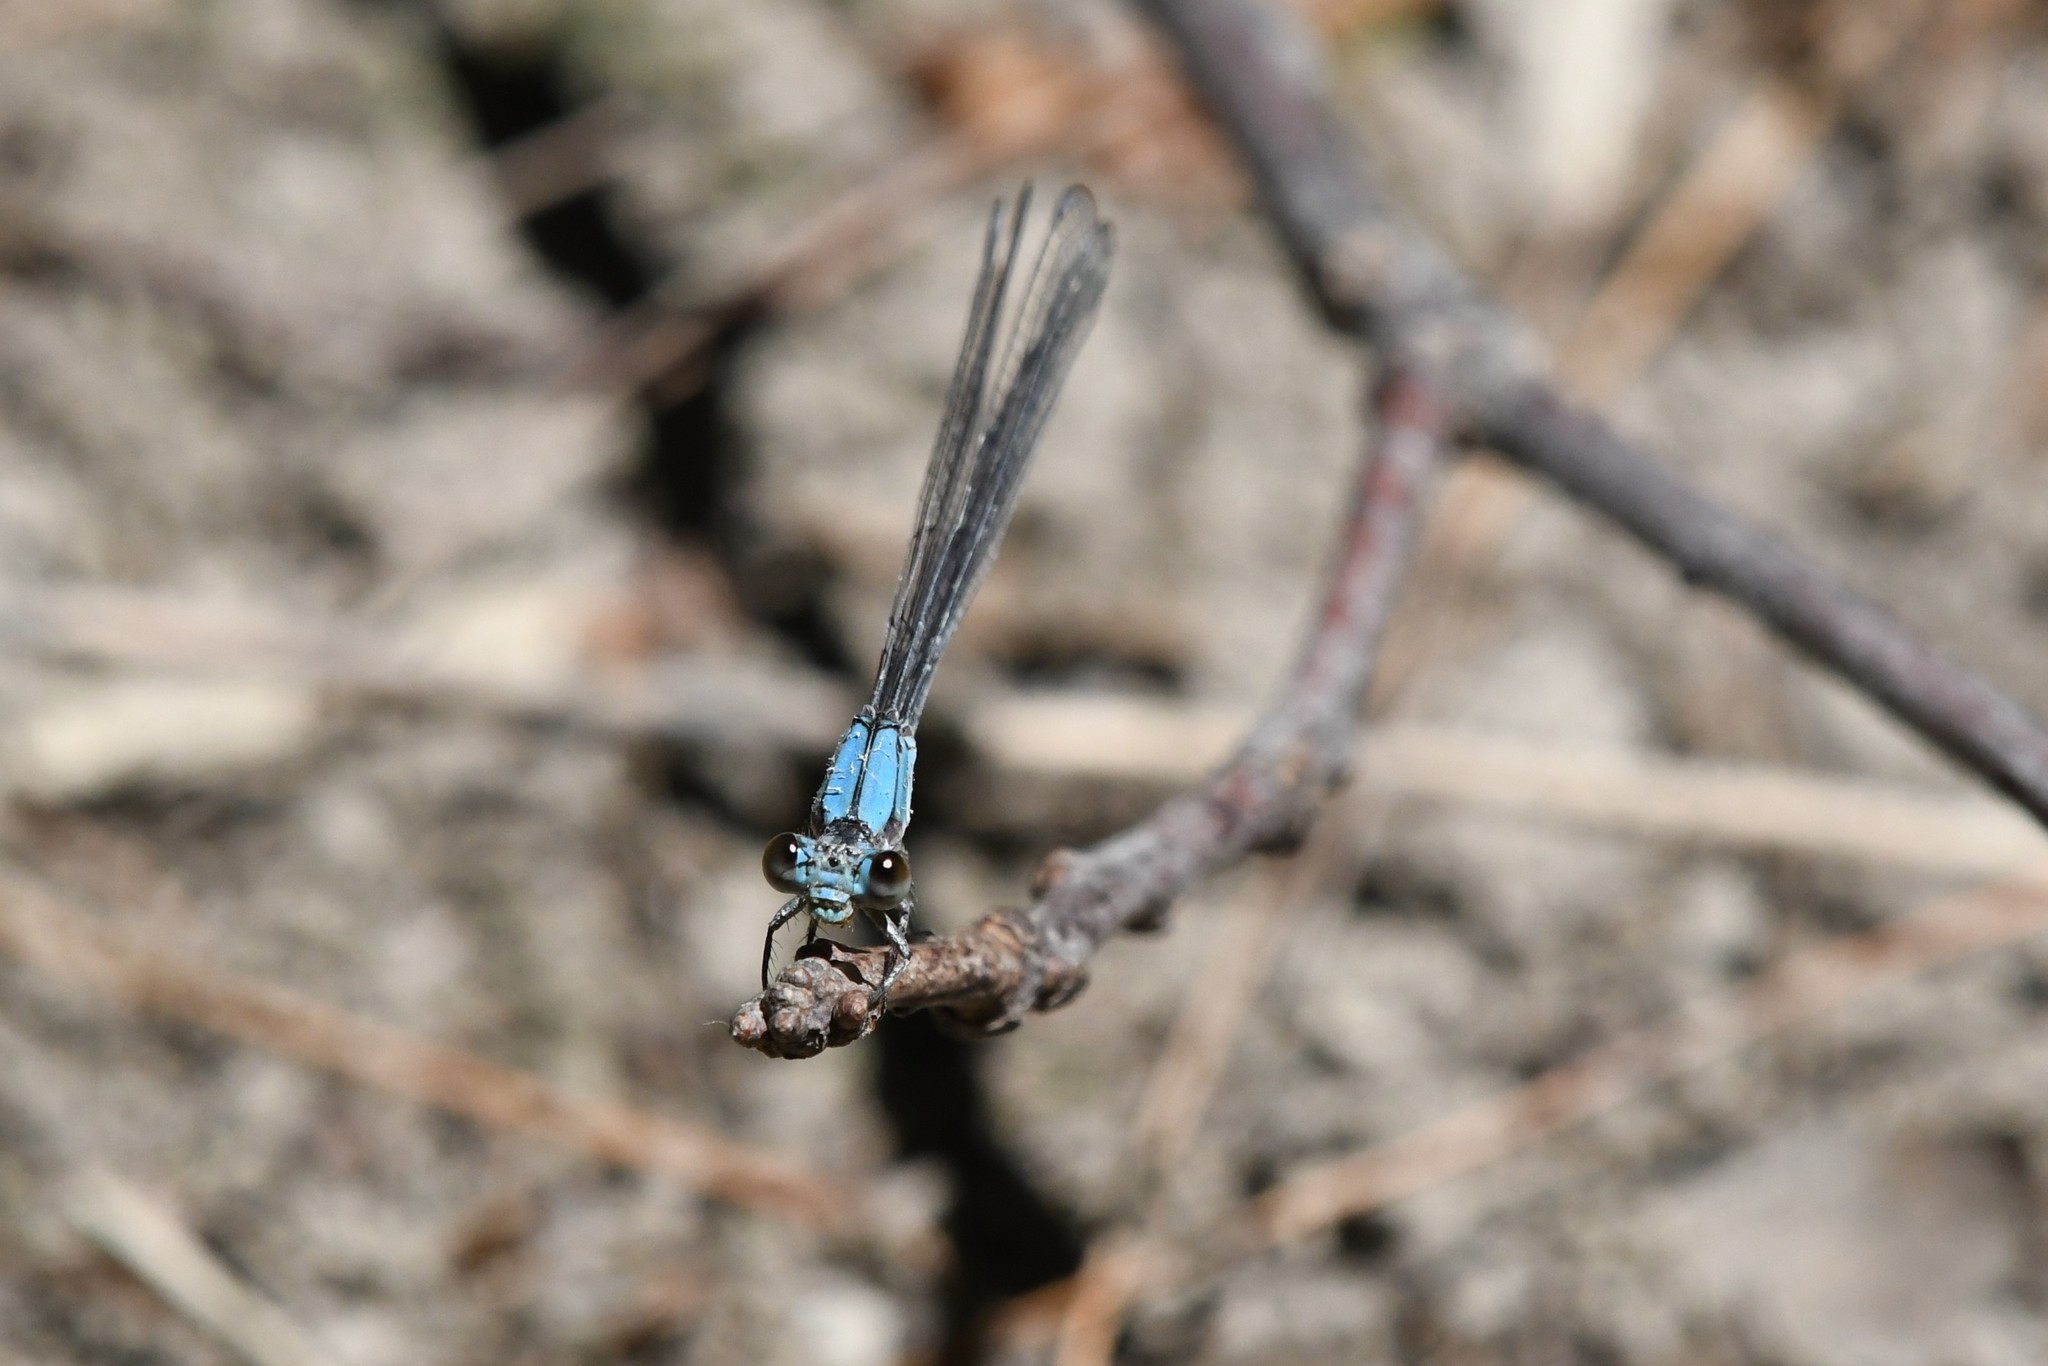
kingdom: Animalia
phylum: Arthropoda
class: Insecta
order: Odonata
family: Coenagrionidae
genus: Argia
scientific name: Argia moesta
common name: Powdered dancer
